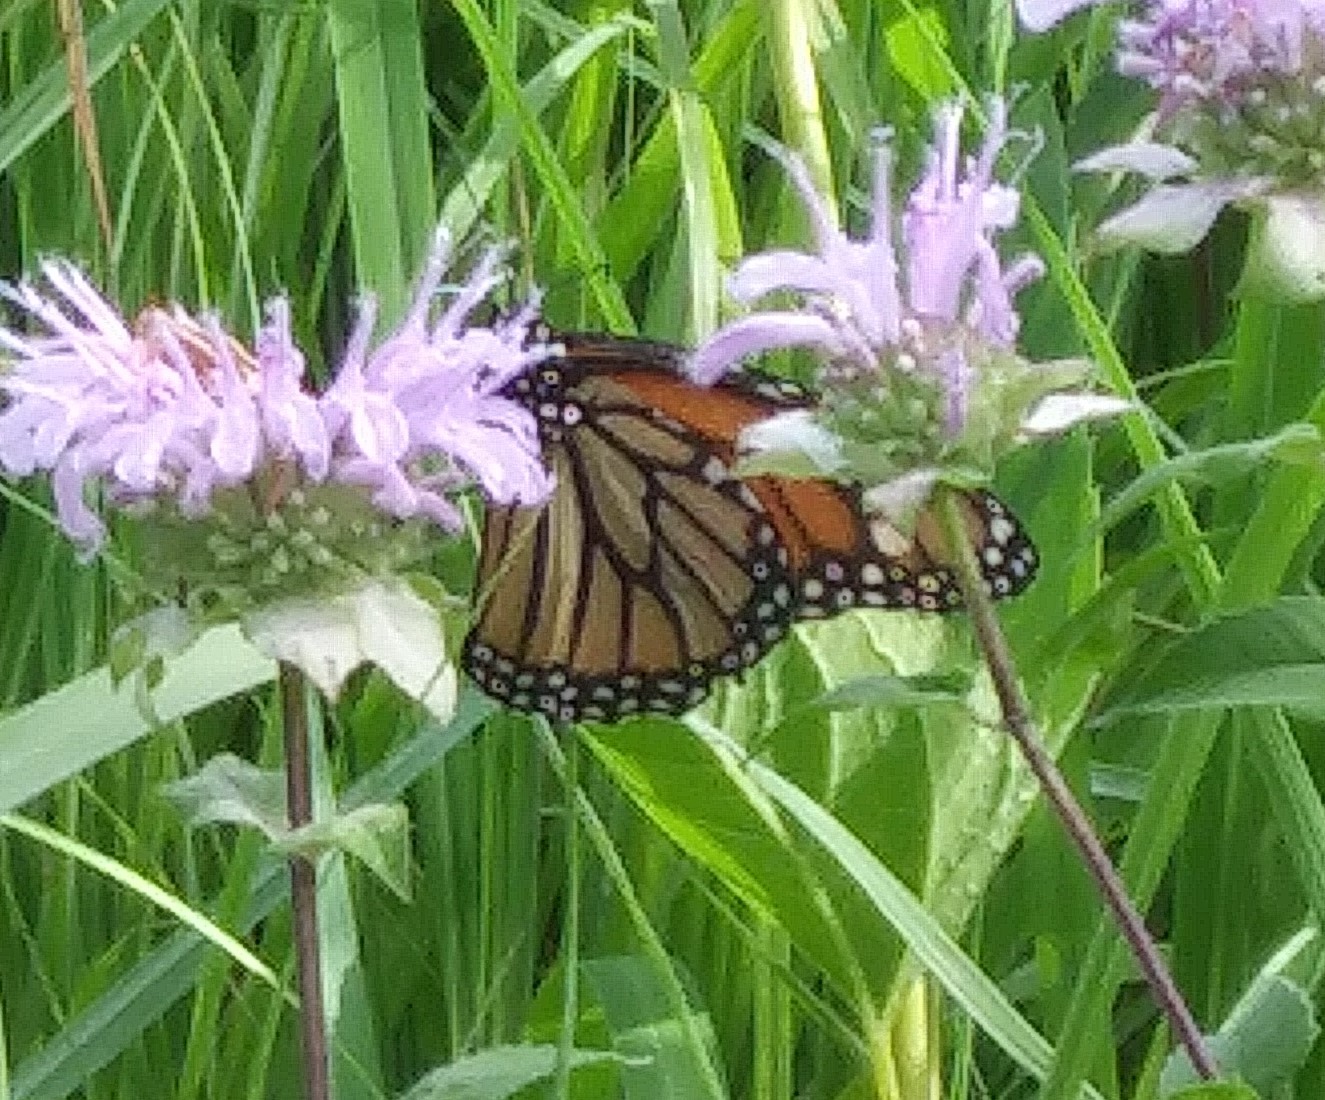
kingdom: Animalia
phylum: Arthropoda
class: Insecta
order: Lepidoptera
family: Nymphalidae
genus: Danaus
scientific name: Danaus plexippus
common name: Monarch
